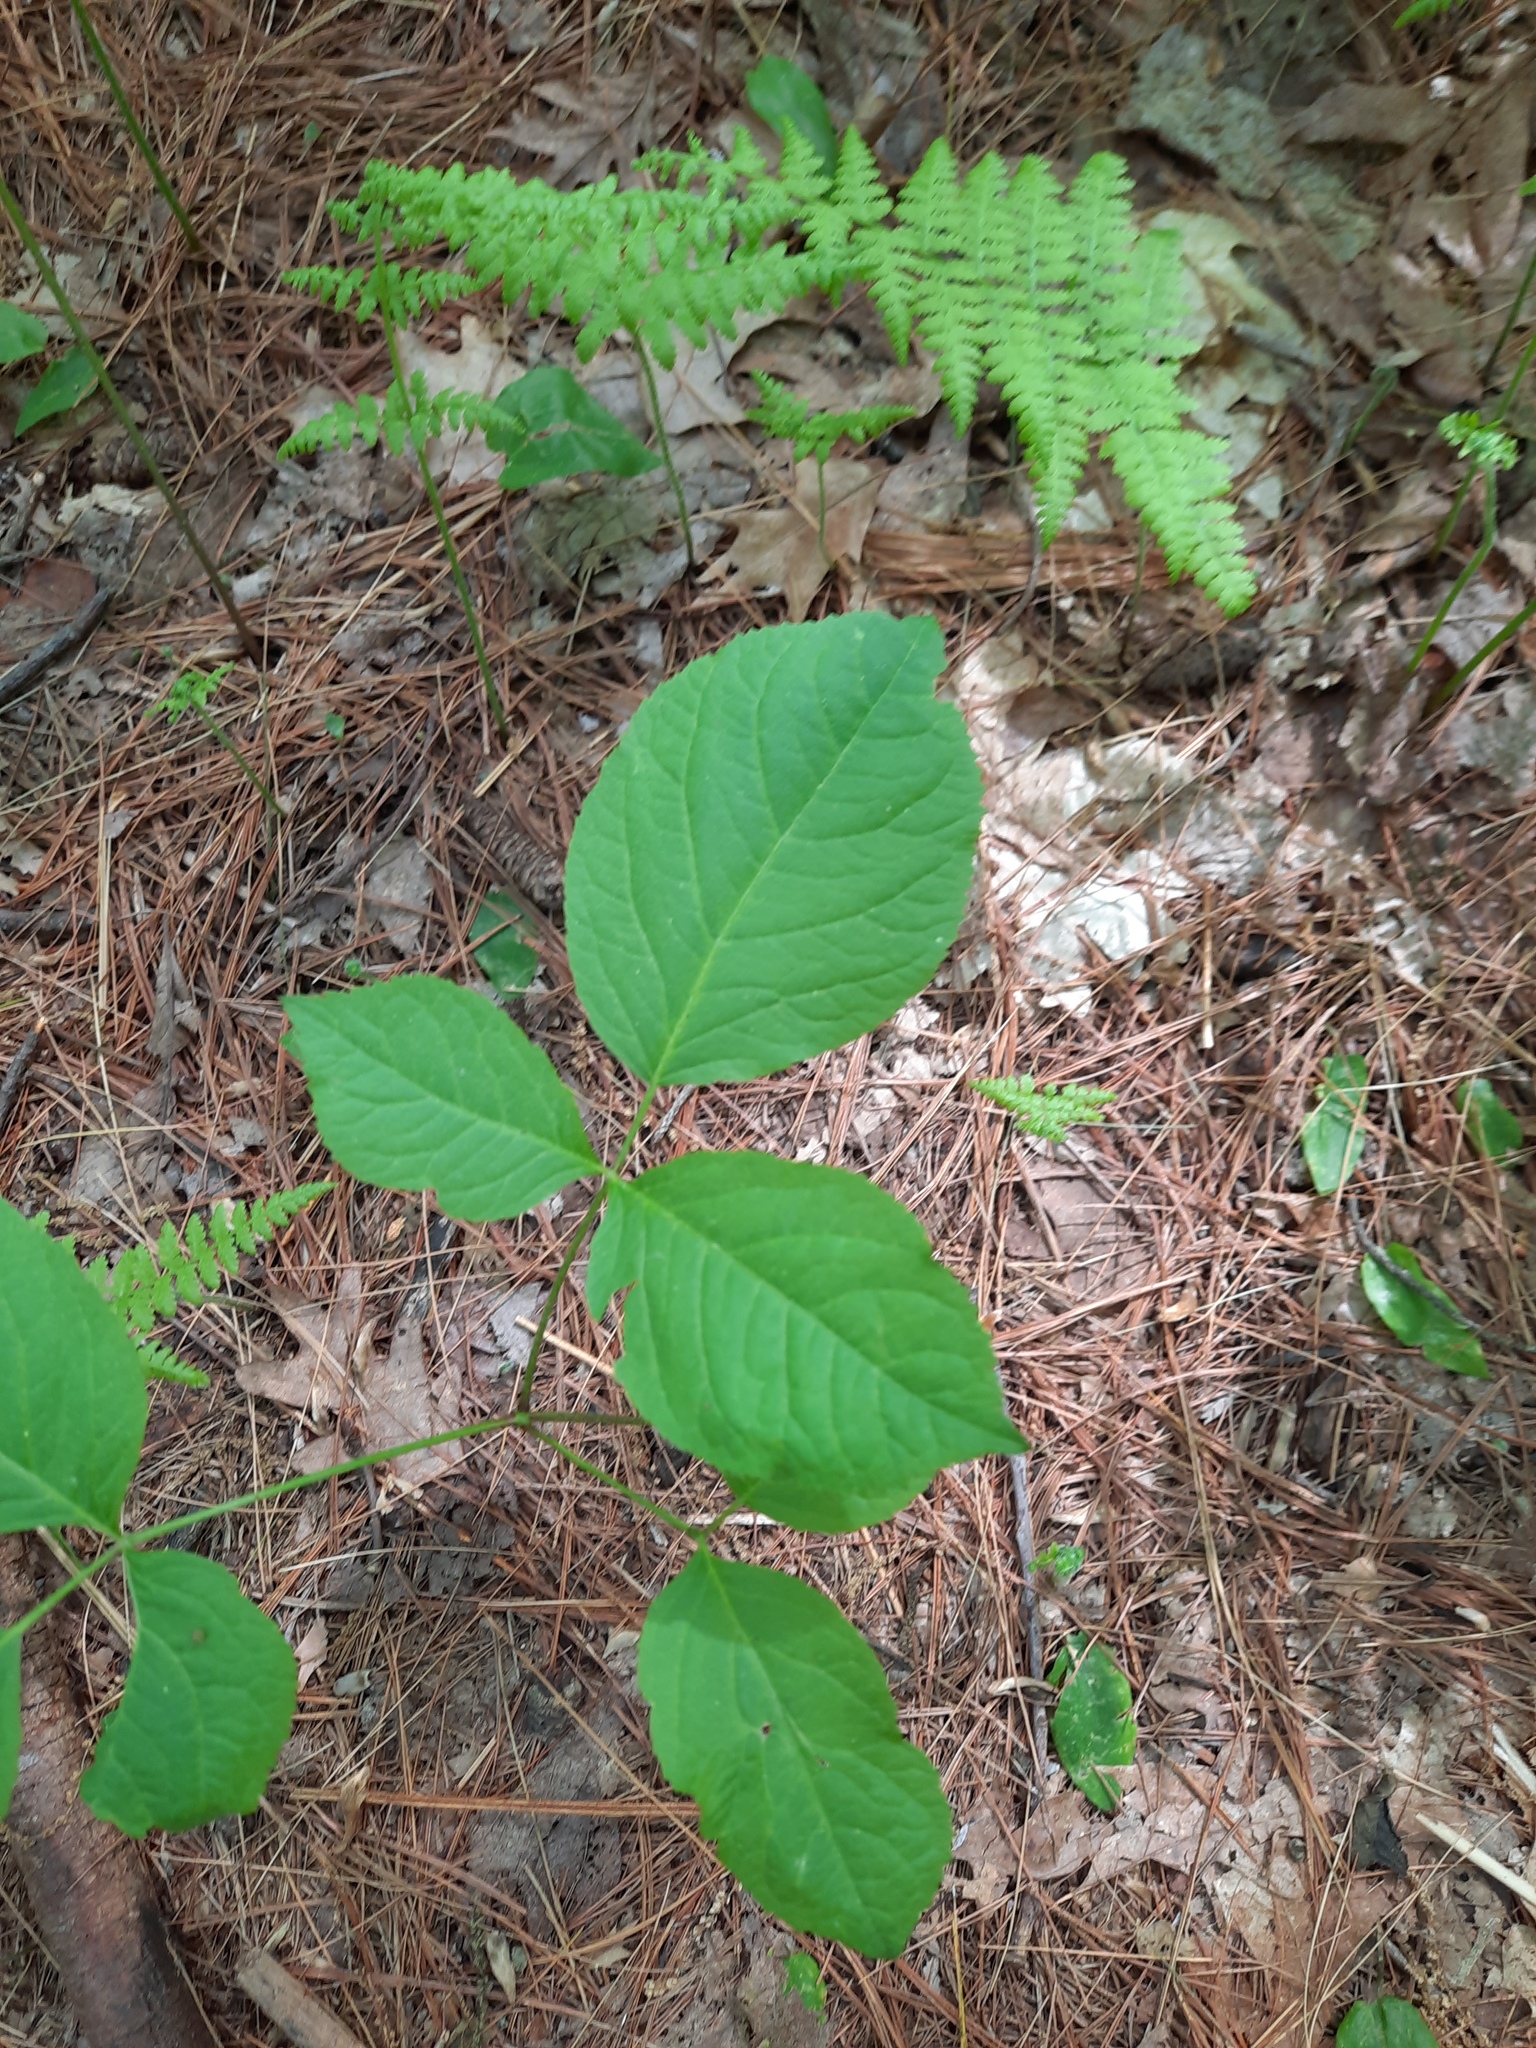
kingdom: Plantae
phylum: Tracheophyta
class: Magnoliopsida
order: Apiales
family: Araliaceae
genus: Aralia
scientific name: Aralia nudicaulis
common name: Wild sarsaparilla
